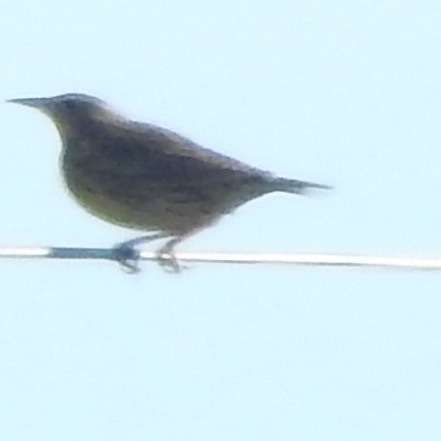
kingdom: Animalia
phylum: Chordata
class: Aves
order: Passeriformes
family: Icteridae
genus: Sturnella
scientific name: Sturnella neglecta
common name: Western meadowlark
